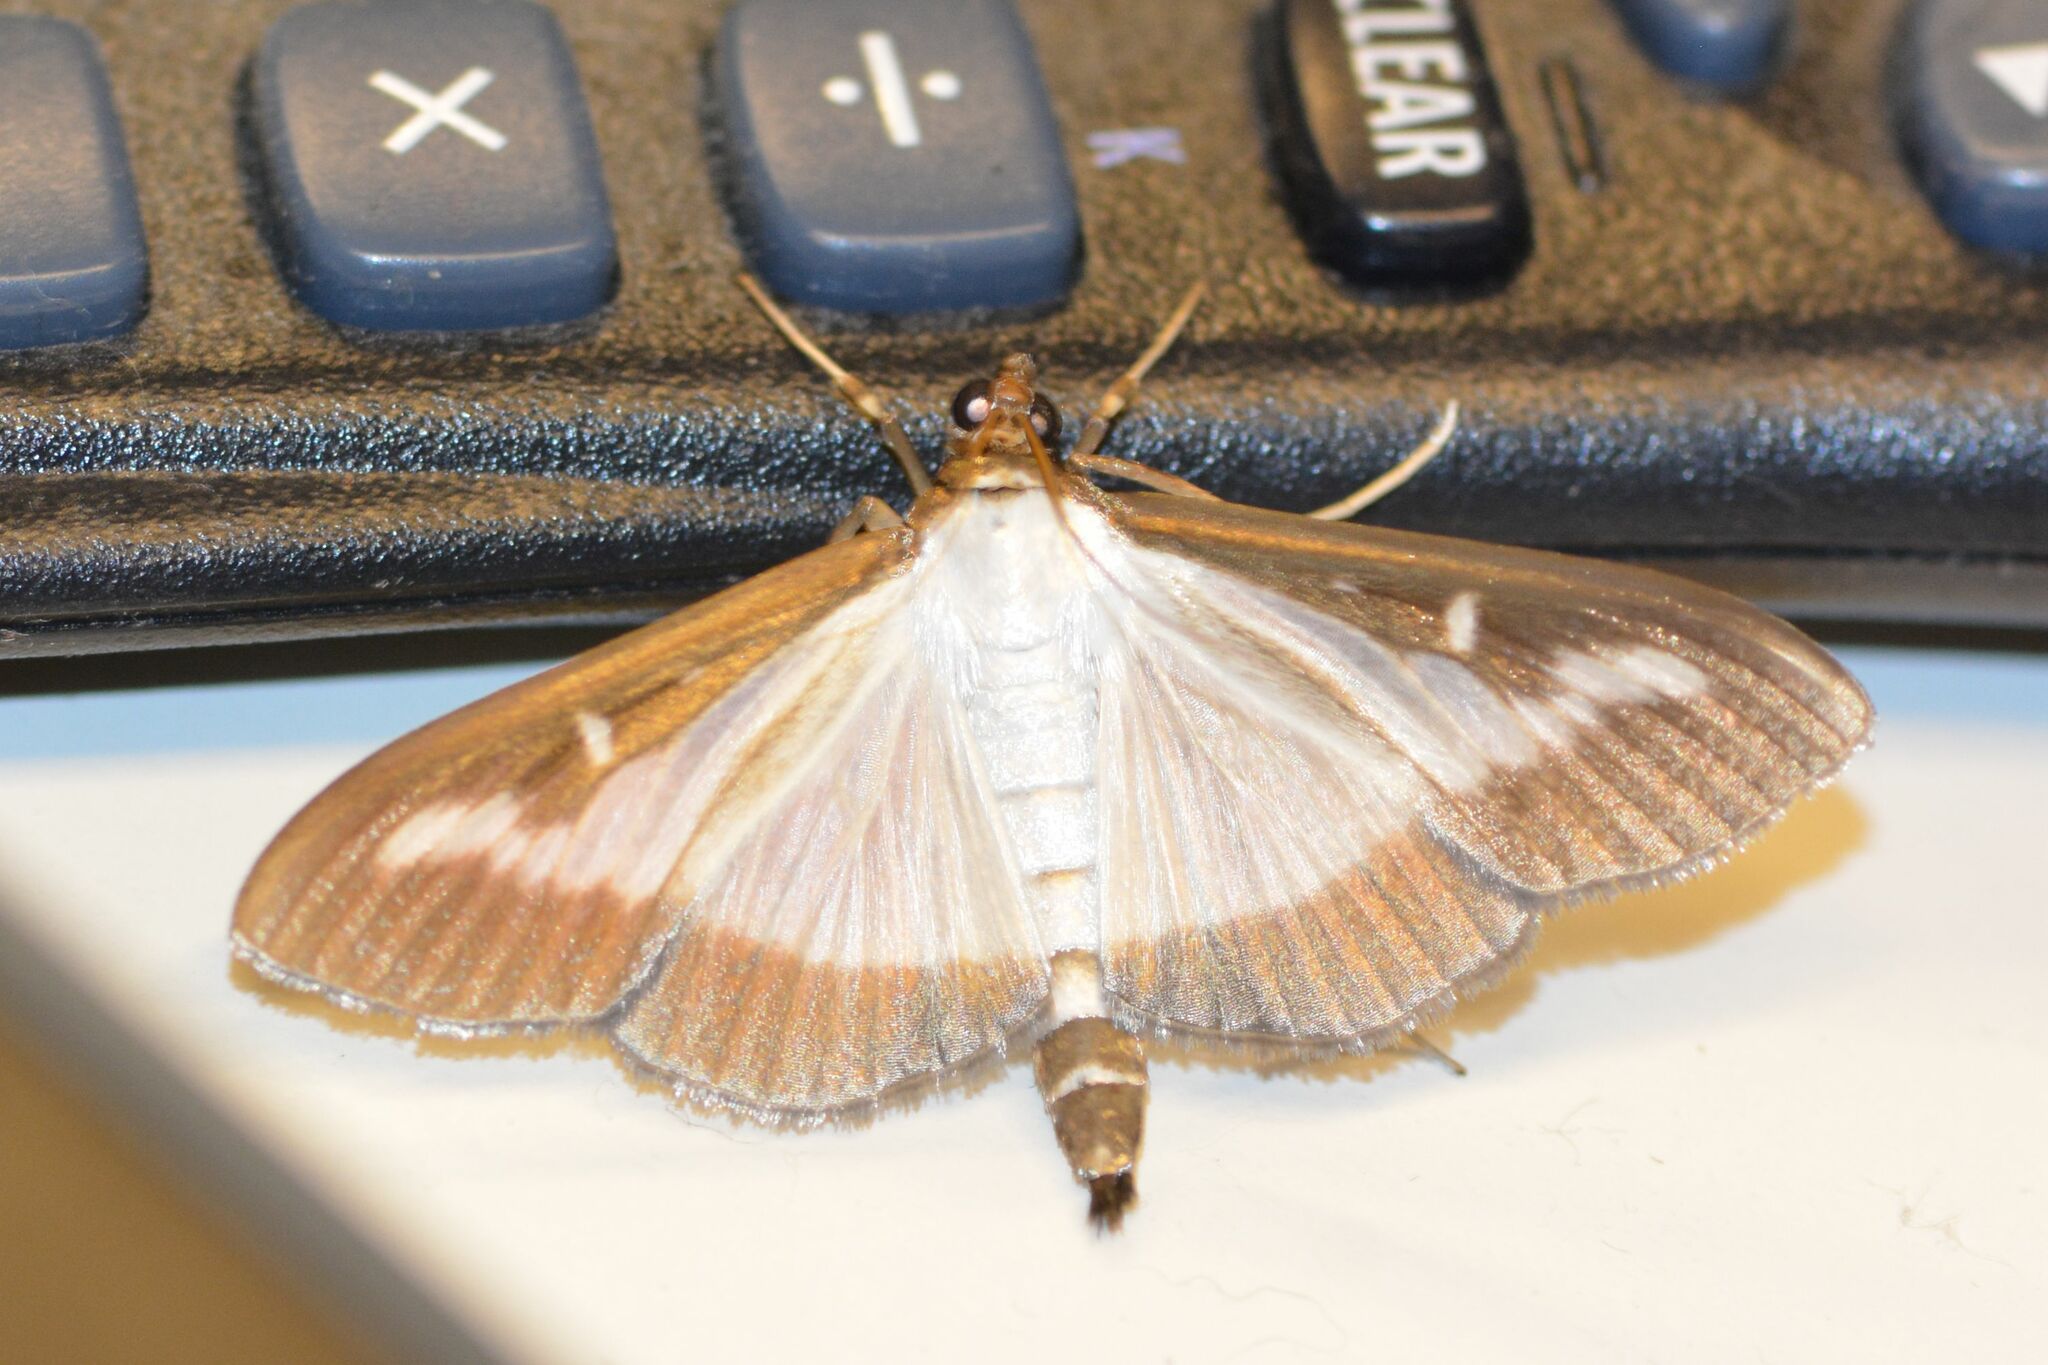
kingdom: Animalia
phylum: Arthropoda
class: Insecta
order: Lepidoptera
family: Crambidae
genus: Cydalima
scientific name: Cydalima perspectalis
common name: Box tree moth
